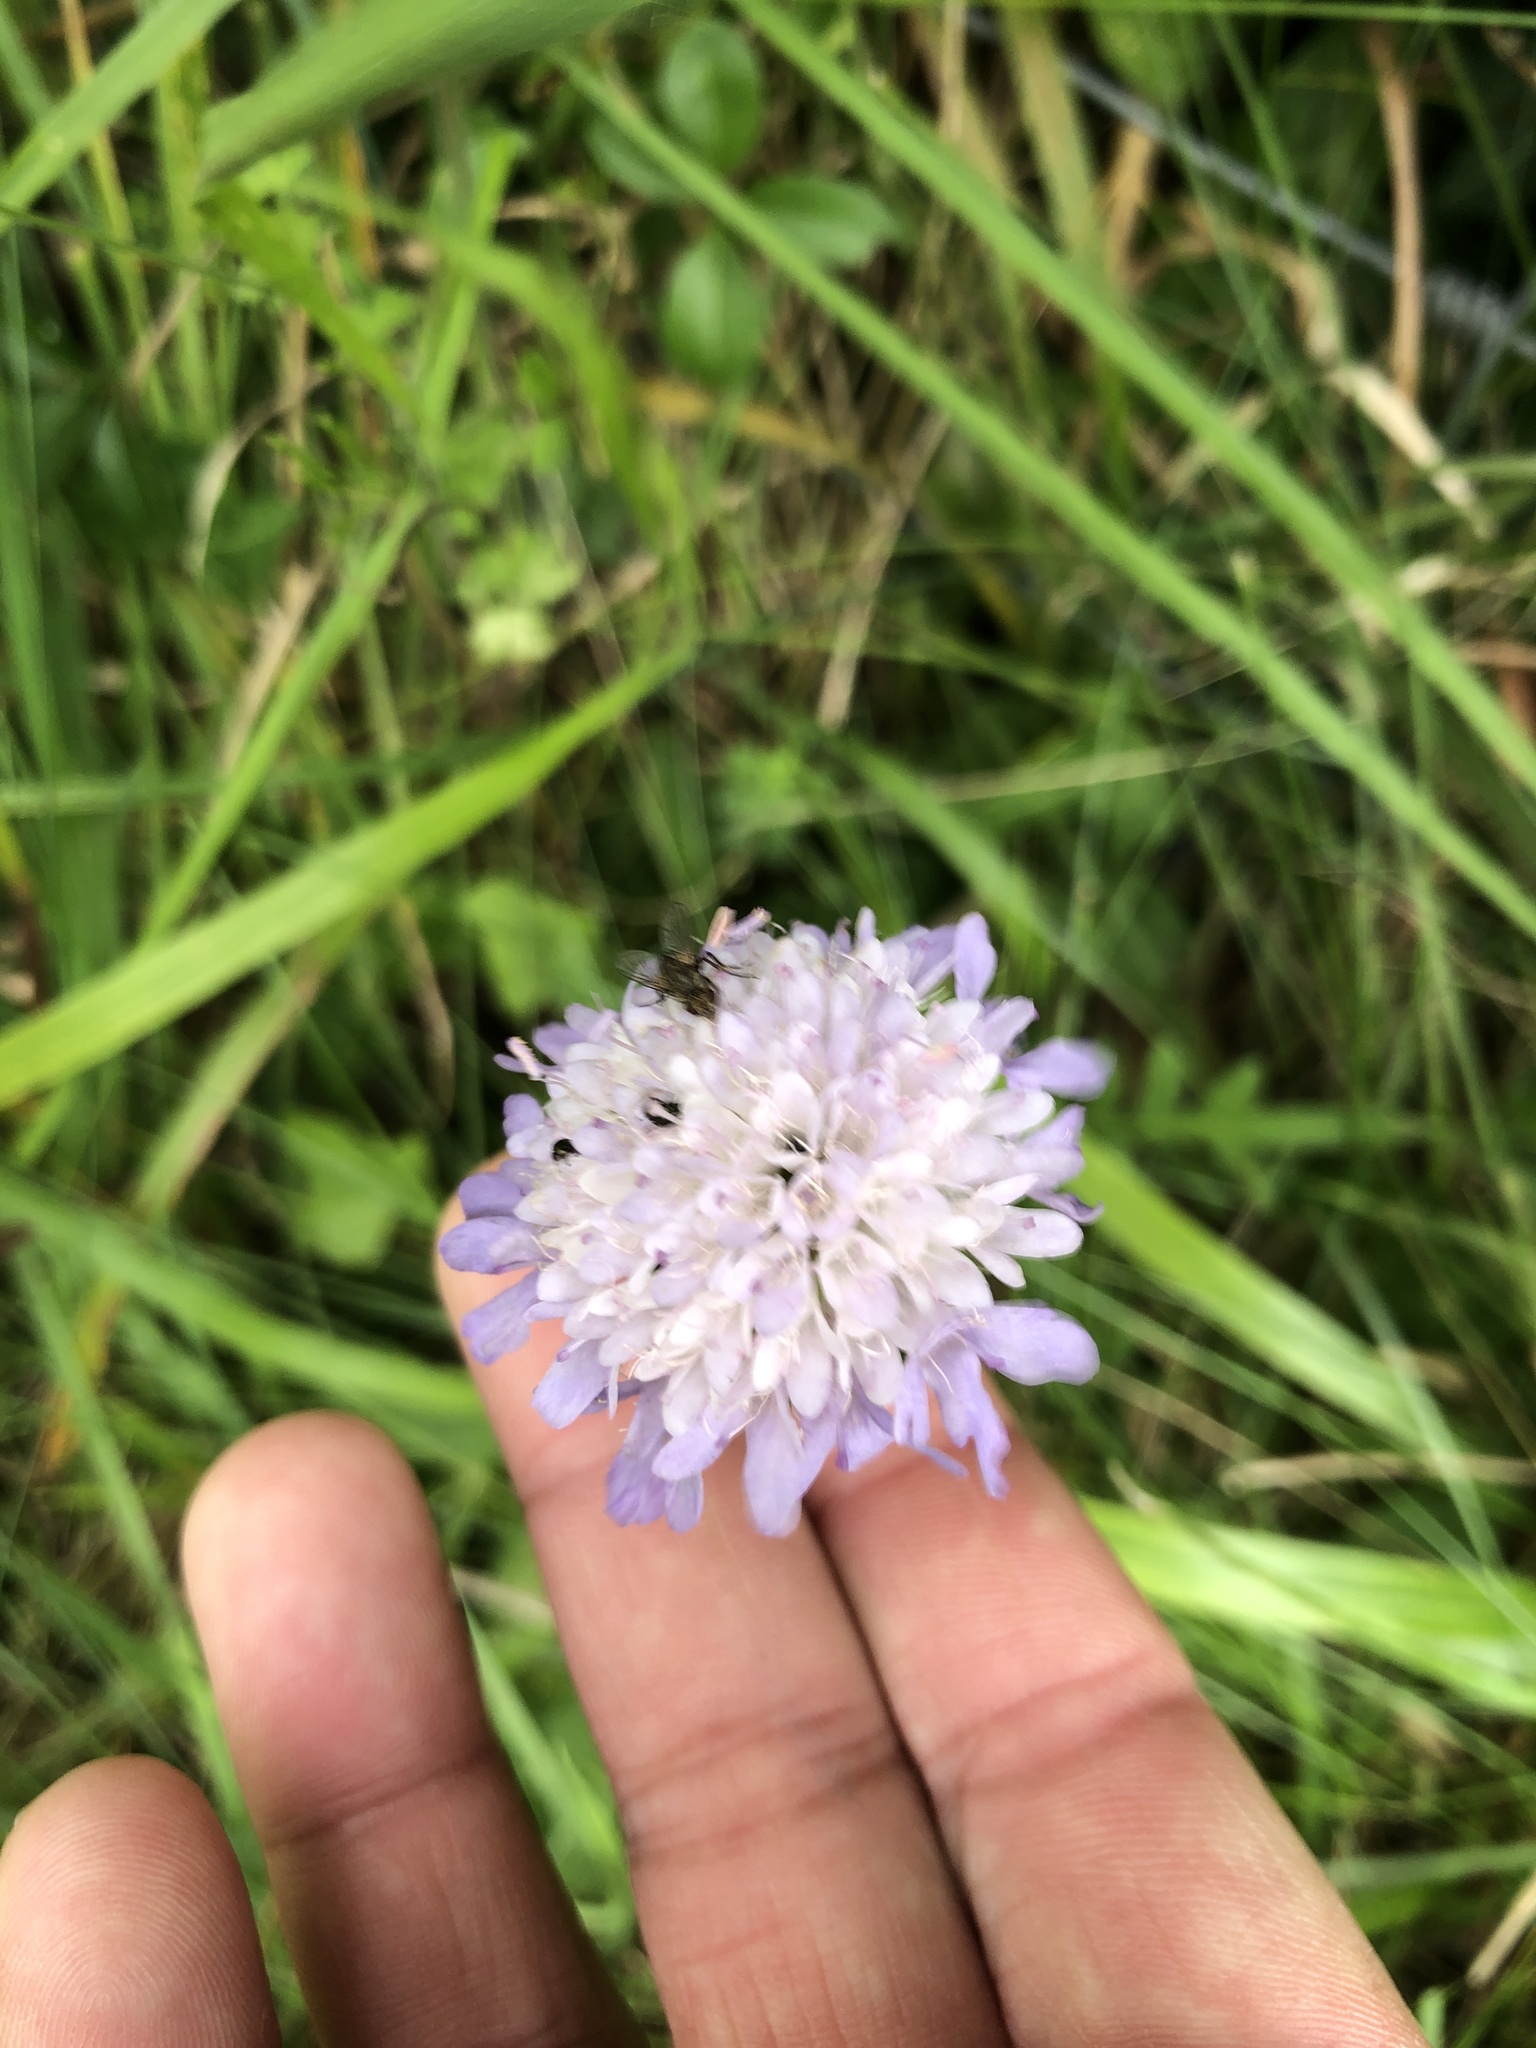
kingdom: Plantae
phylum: Tracheophyta
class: Magnoliopsida
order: Dipsacales
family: Caprifoliaceae
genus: Knautia
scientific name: Knautia arvensis
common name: Field scabiosa
